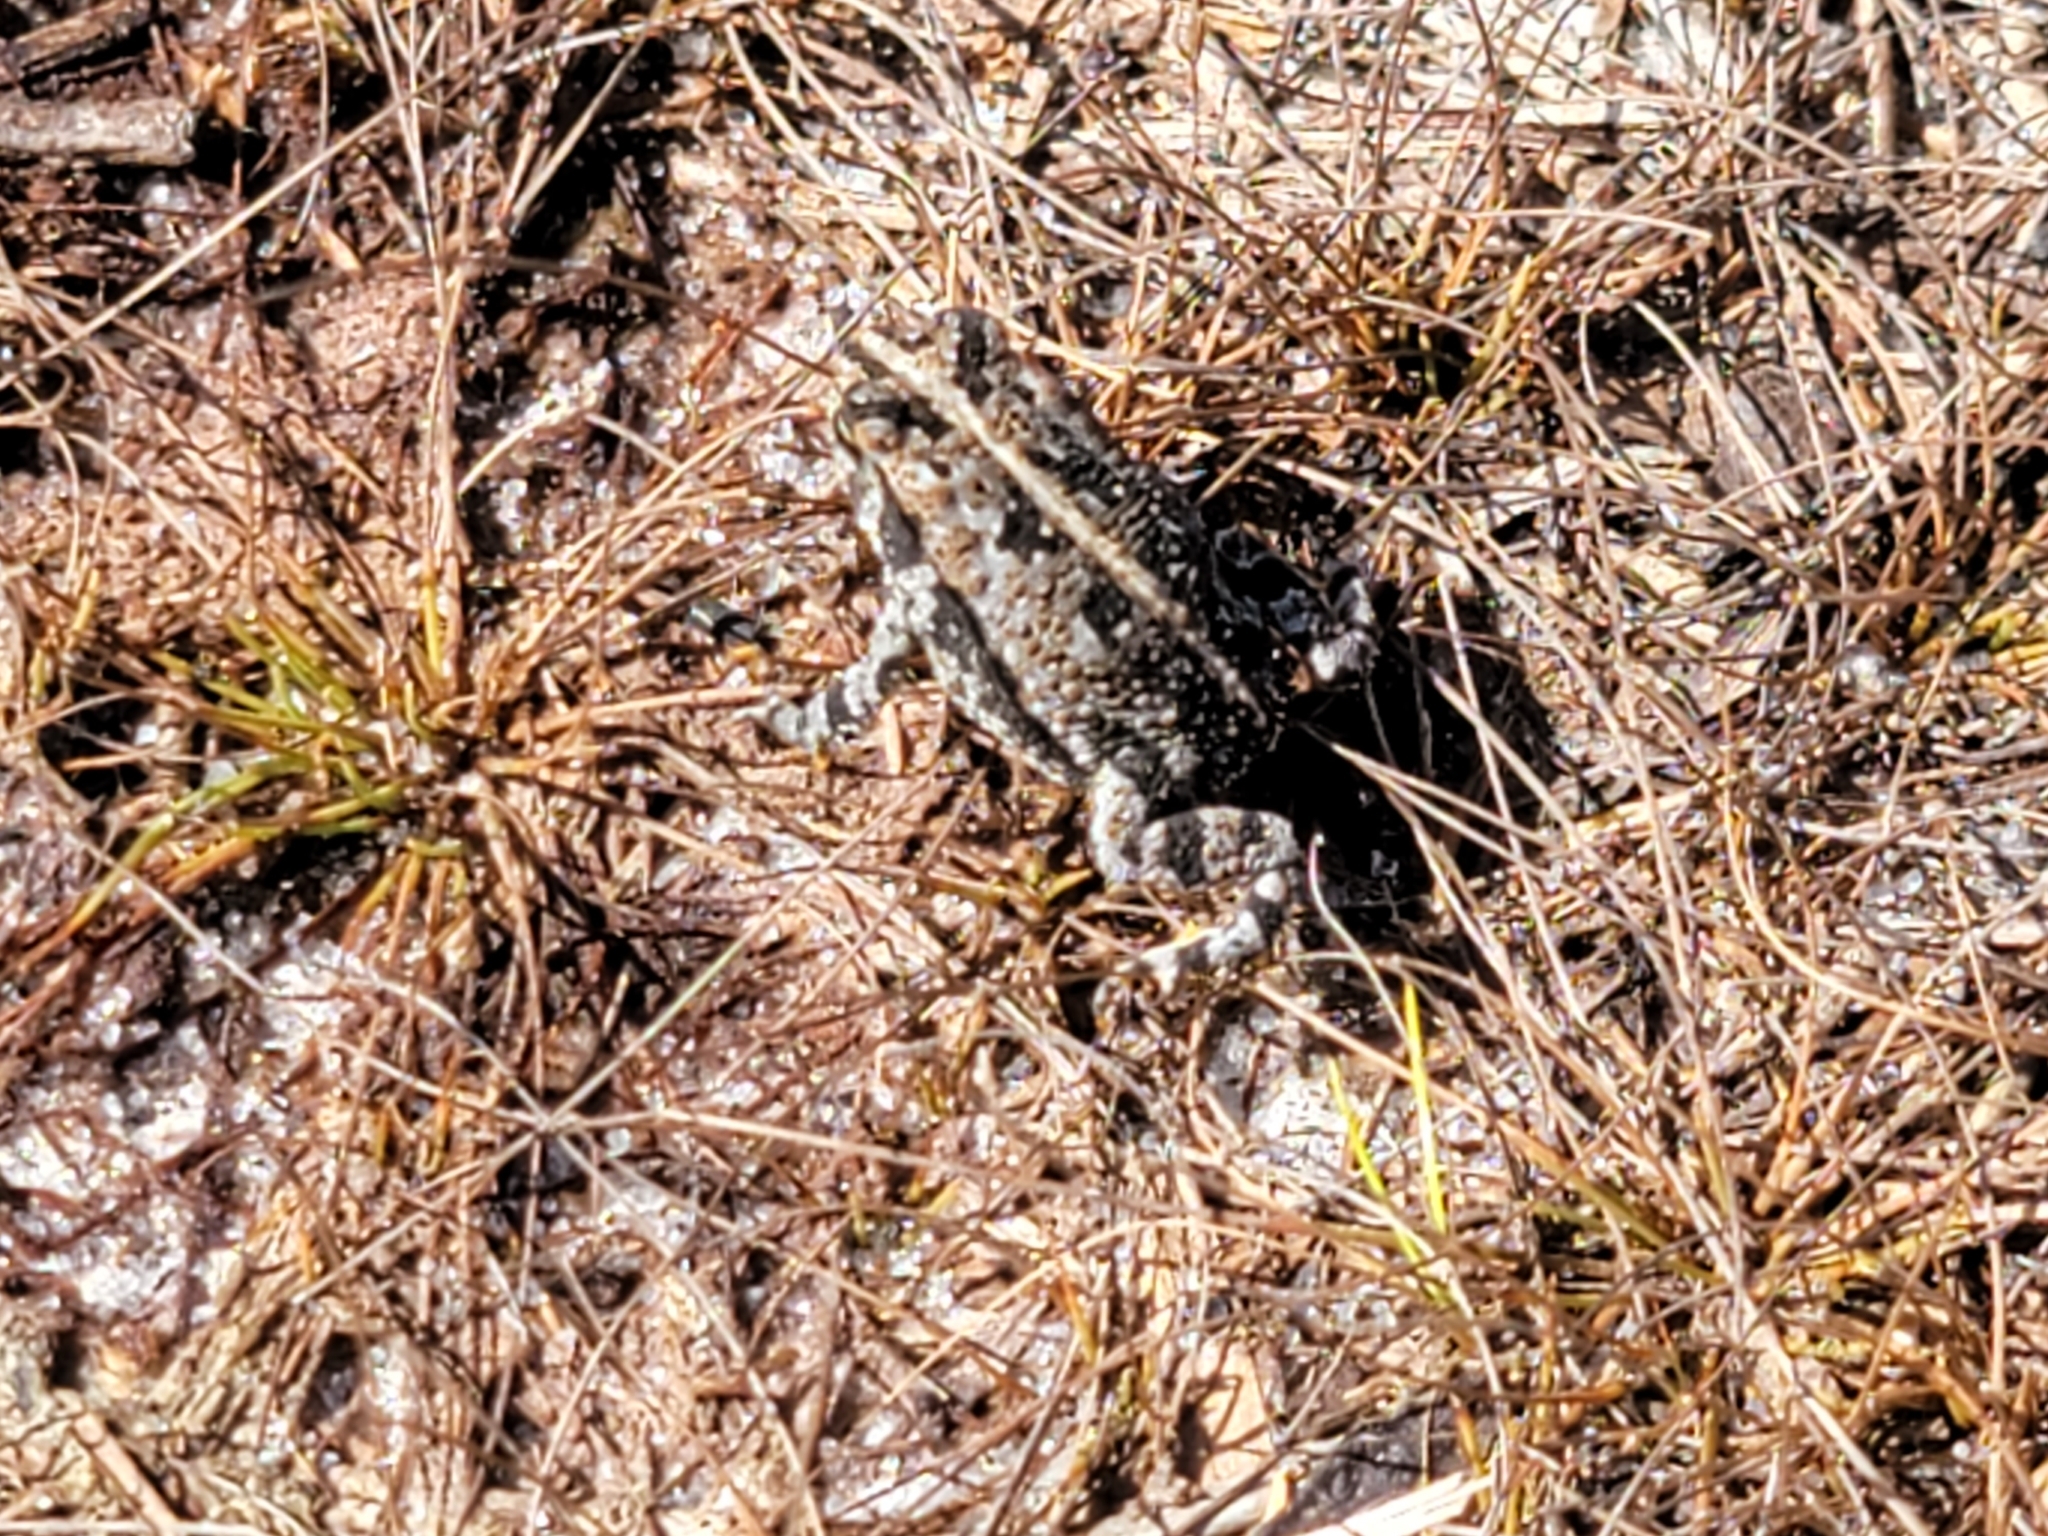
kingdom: Animalia
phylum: Chordata
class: Amphibia
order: Anura
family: Bufonidae
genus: Anaxyrus
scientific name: Anaxyrus quercicus
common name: Oak toad
